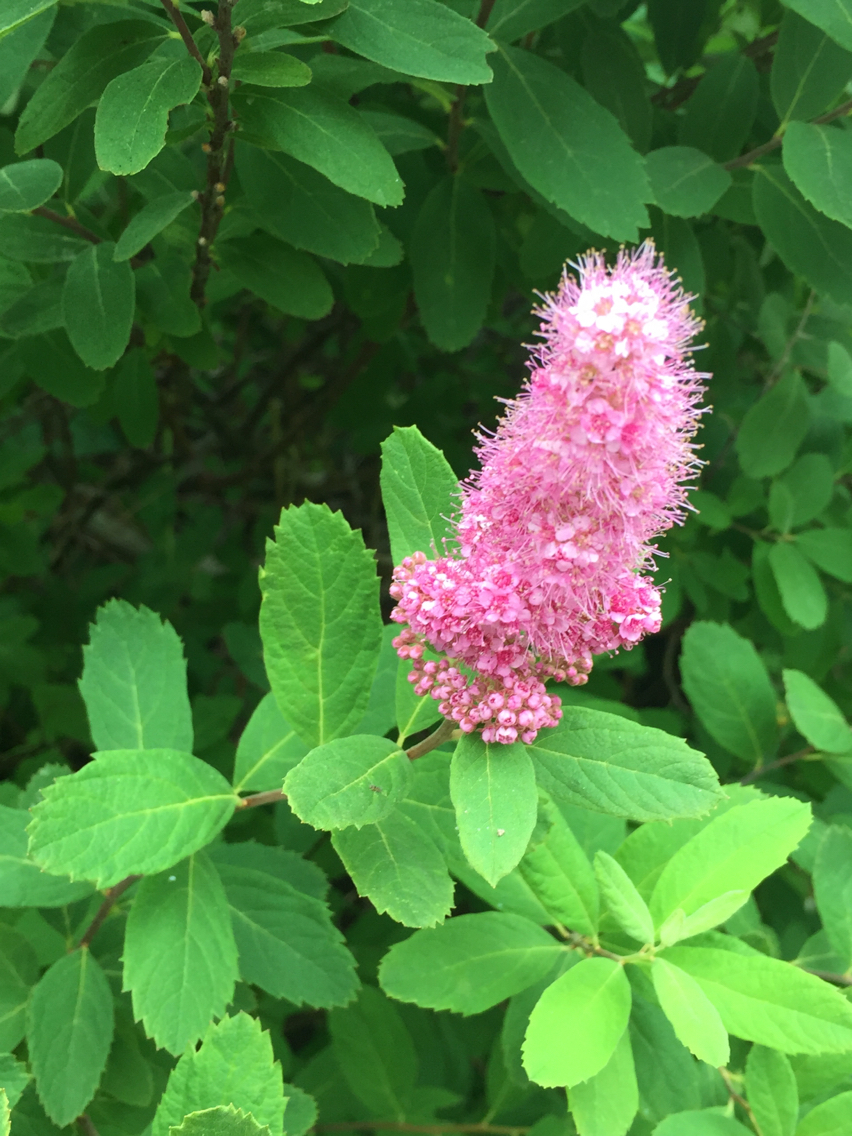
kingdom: Plantae
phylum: Tracheophyta
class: Magnoliopsida
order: Rosales
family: Rosaceae
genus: Spiraea
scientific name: Spiraea douglasii
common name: Steeplebush
